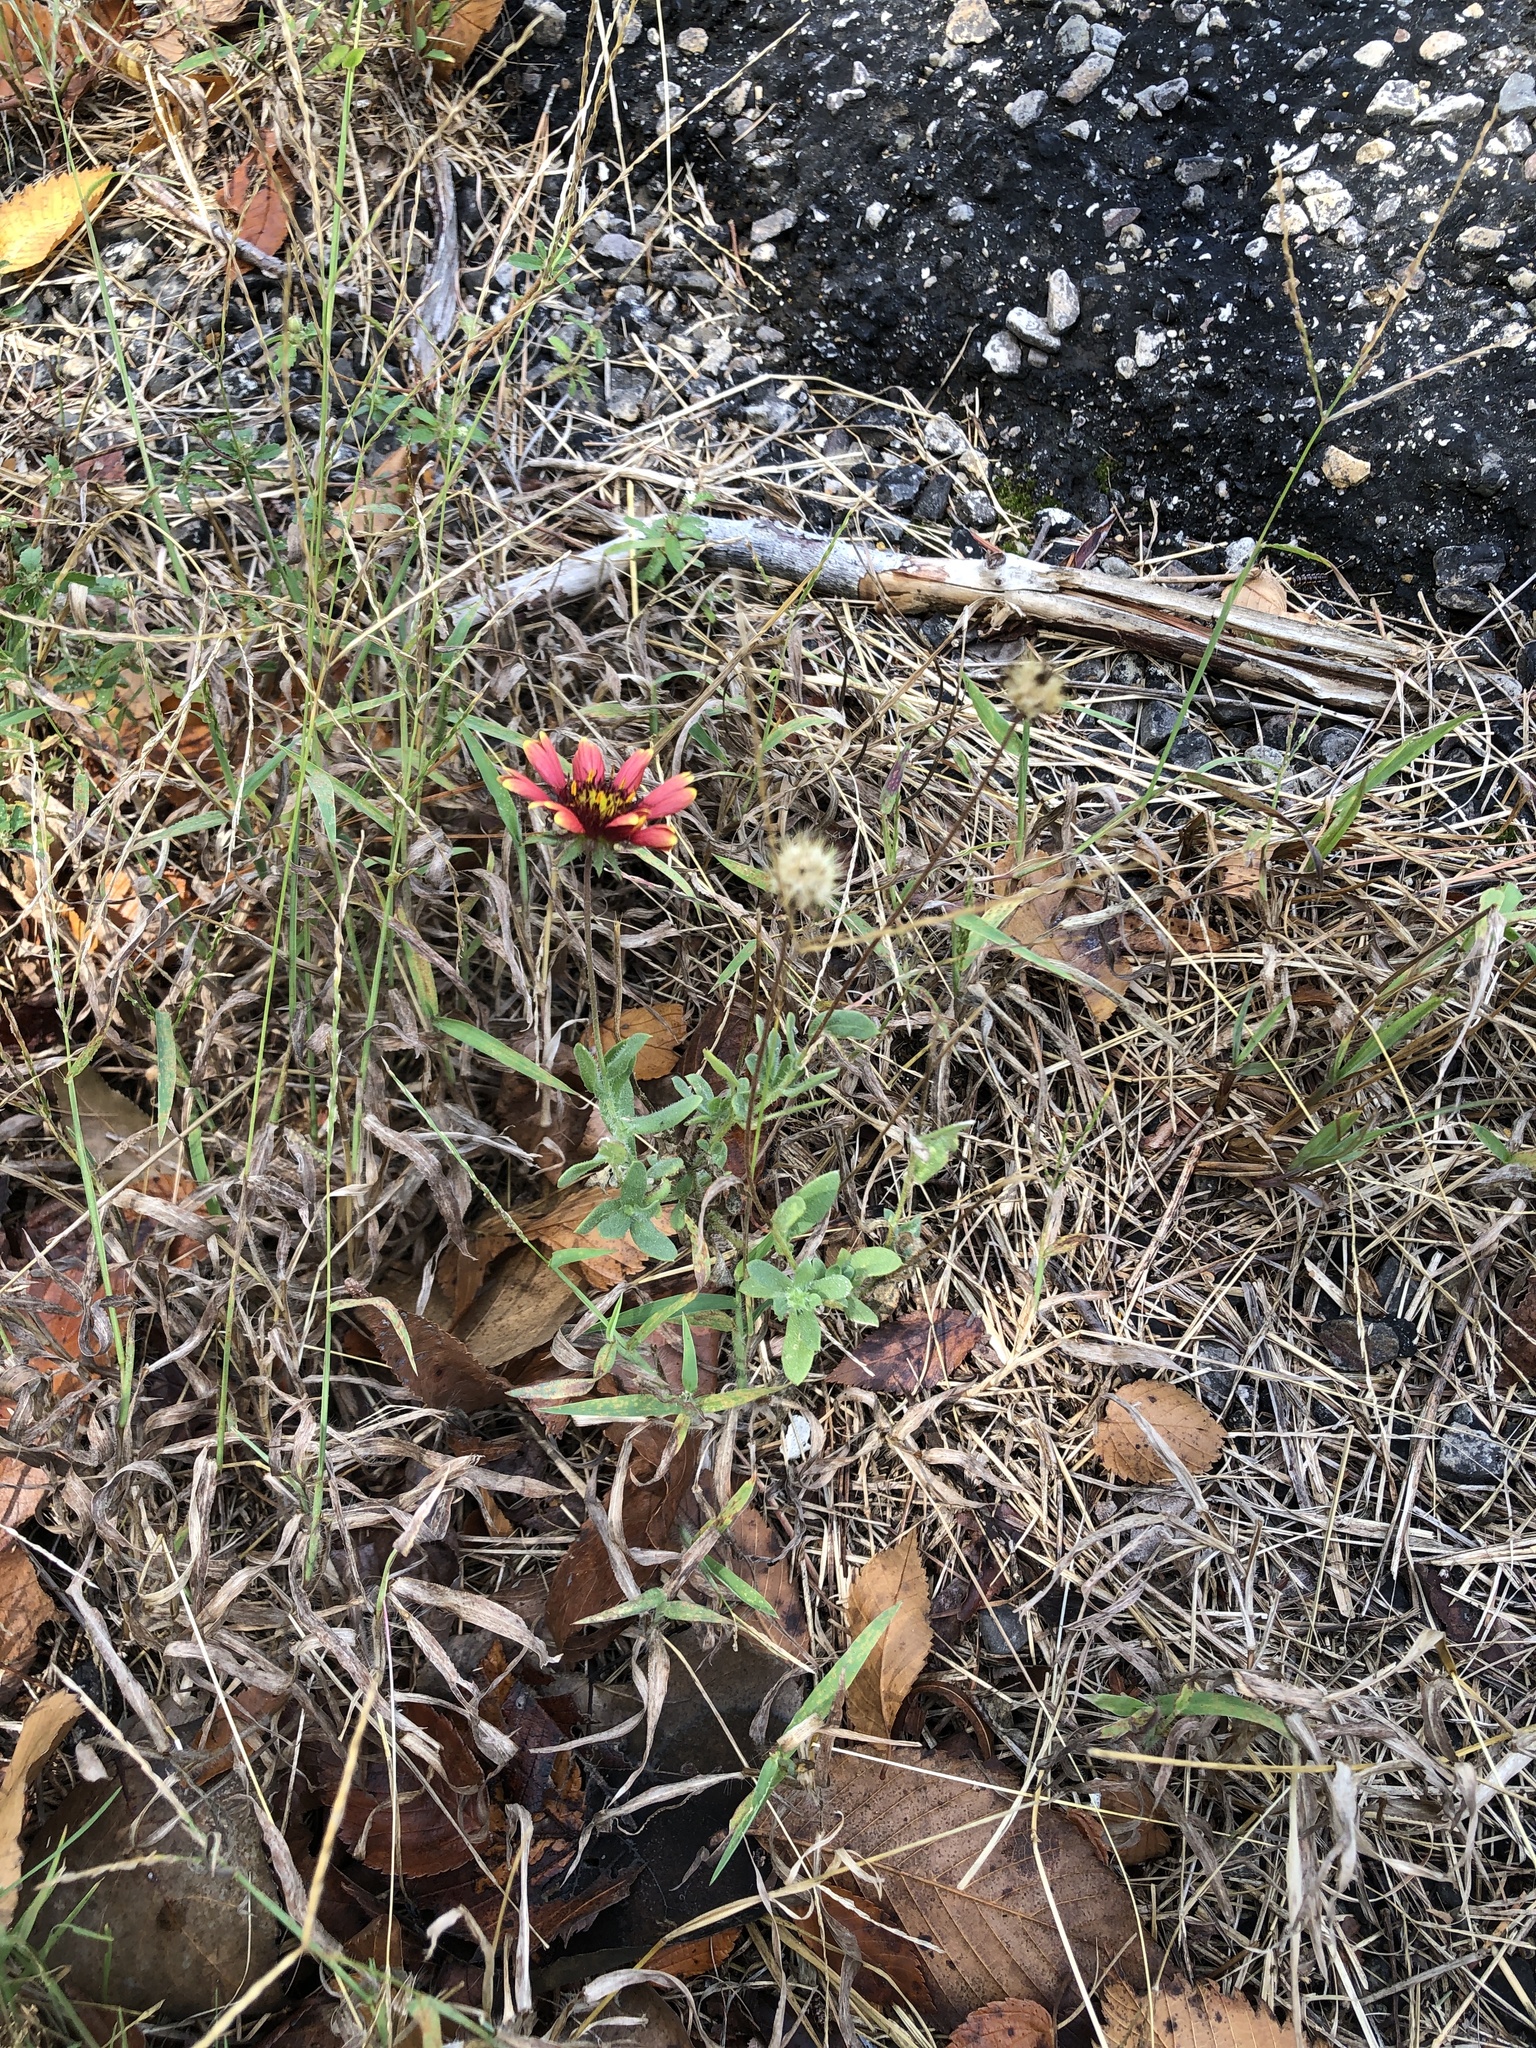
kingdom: Plantae
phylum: Tracheophyta
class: Magnoliopsida
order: Asterales
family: Asteraceae
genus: Gaillardia
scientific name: Gaillardia pulchella
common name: Firewheel
